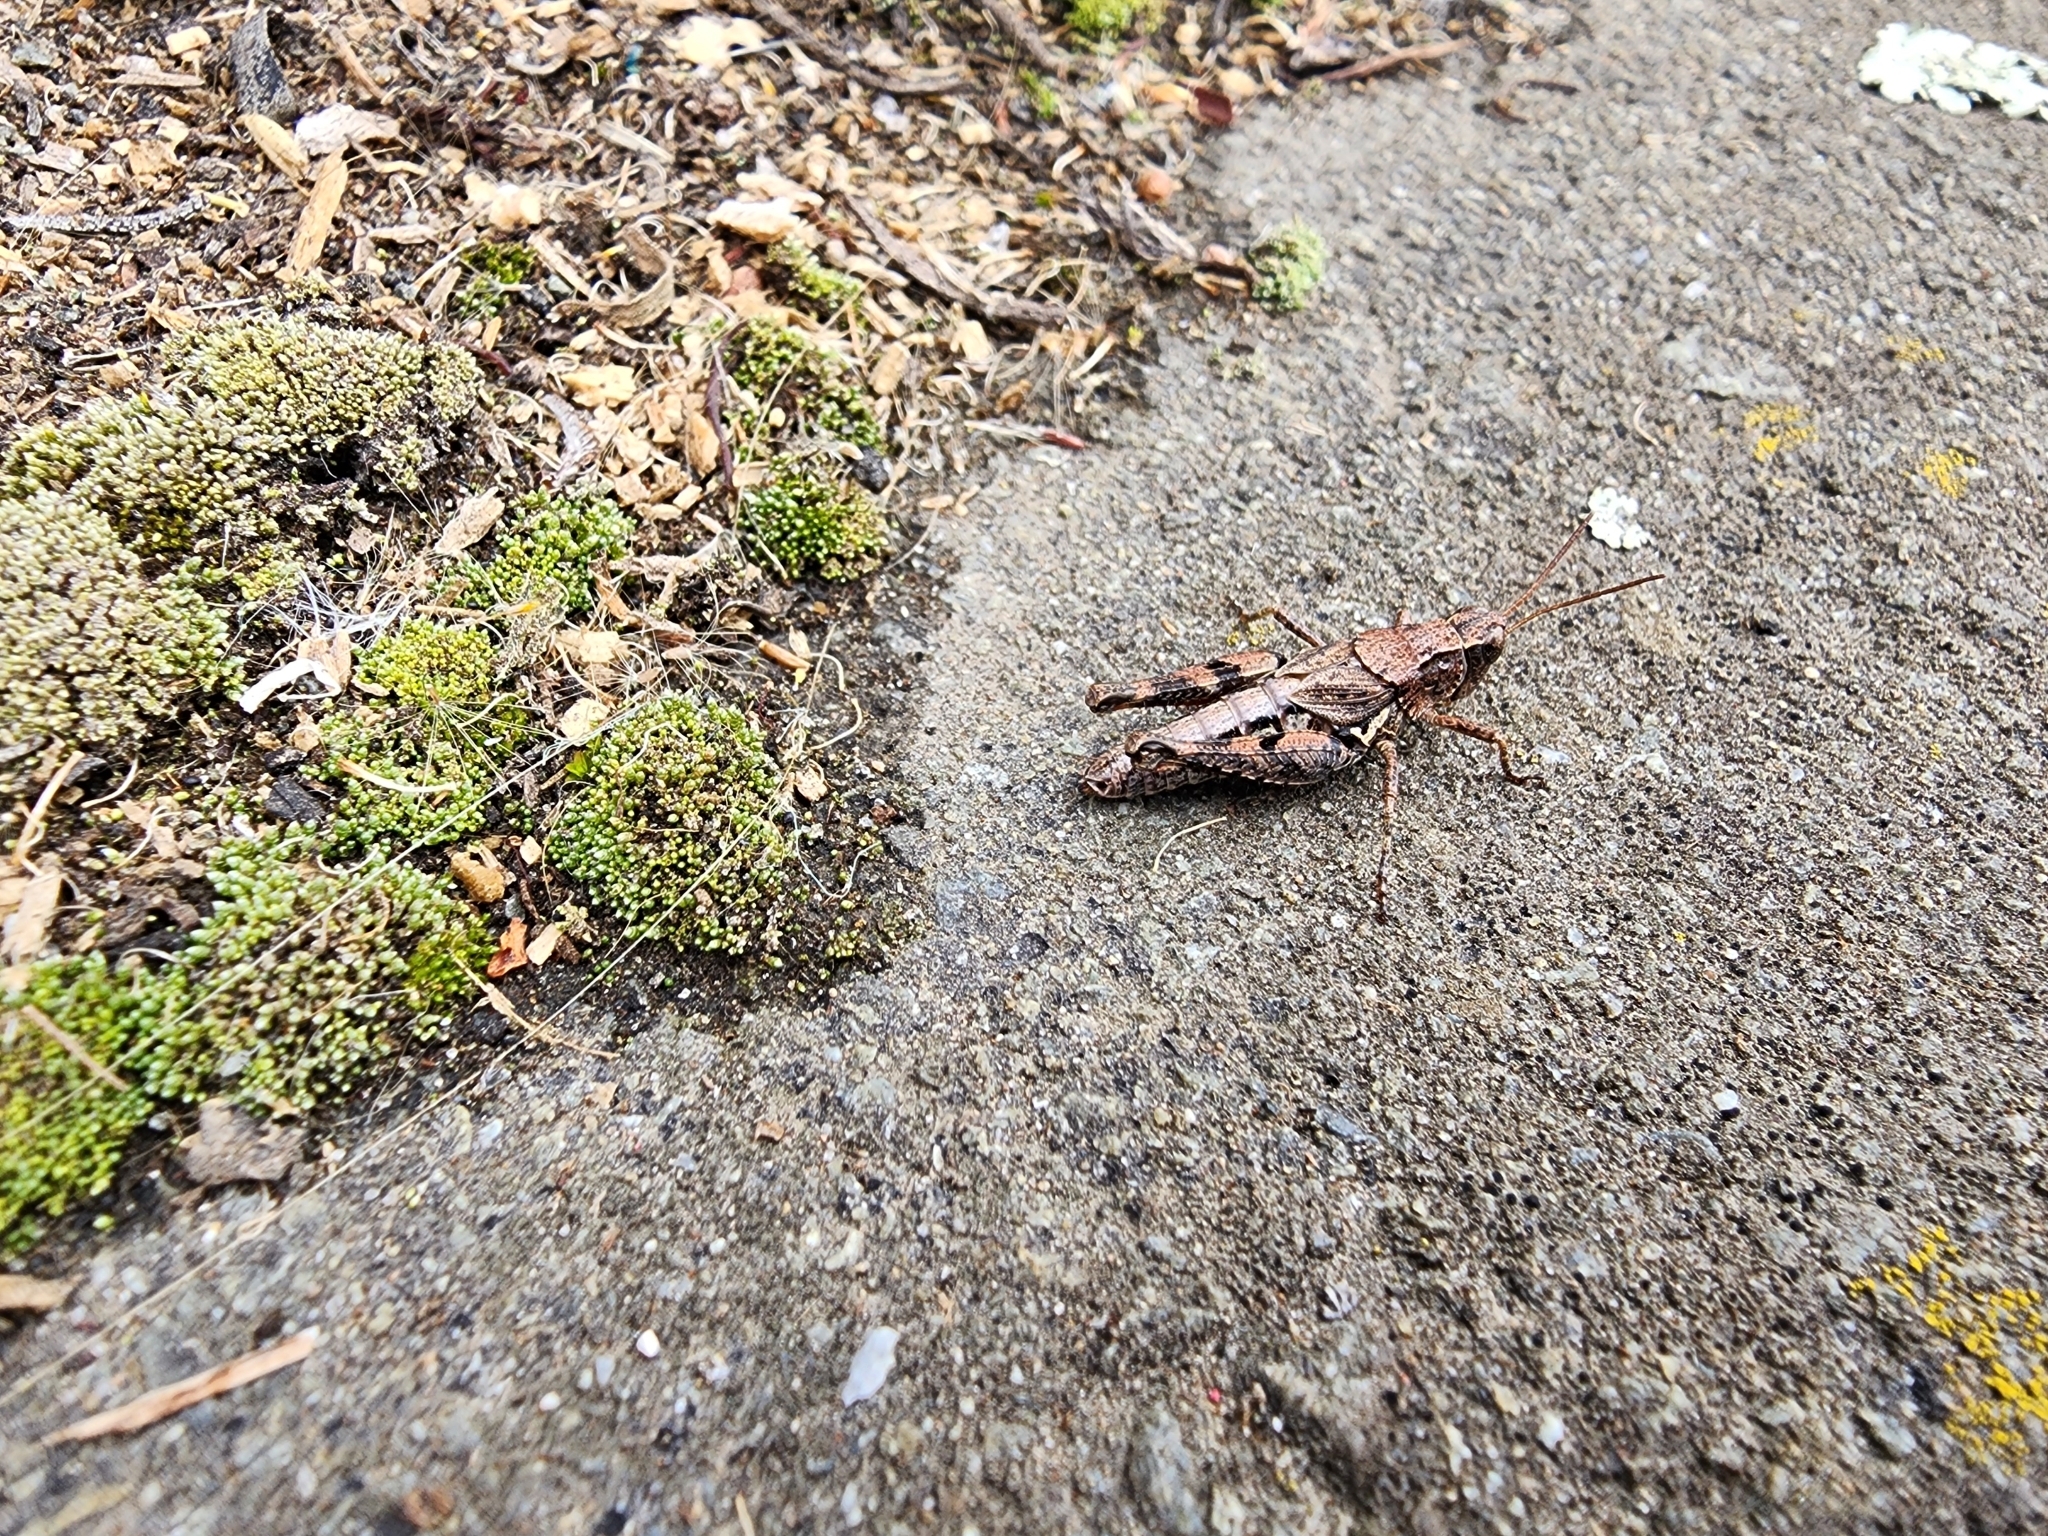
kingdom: Animalia
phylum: Arthropoda
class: Insecta
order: Orthoptera
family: Acrididae
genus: Phaulacridium
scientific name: Phaulacridium marginale
